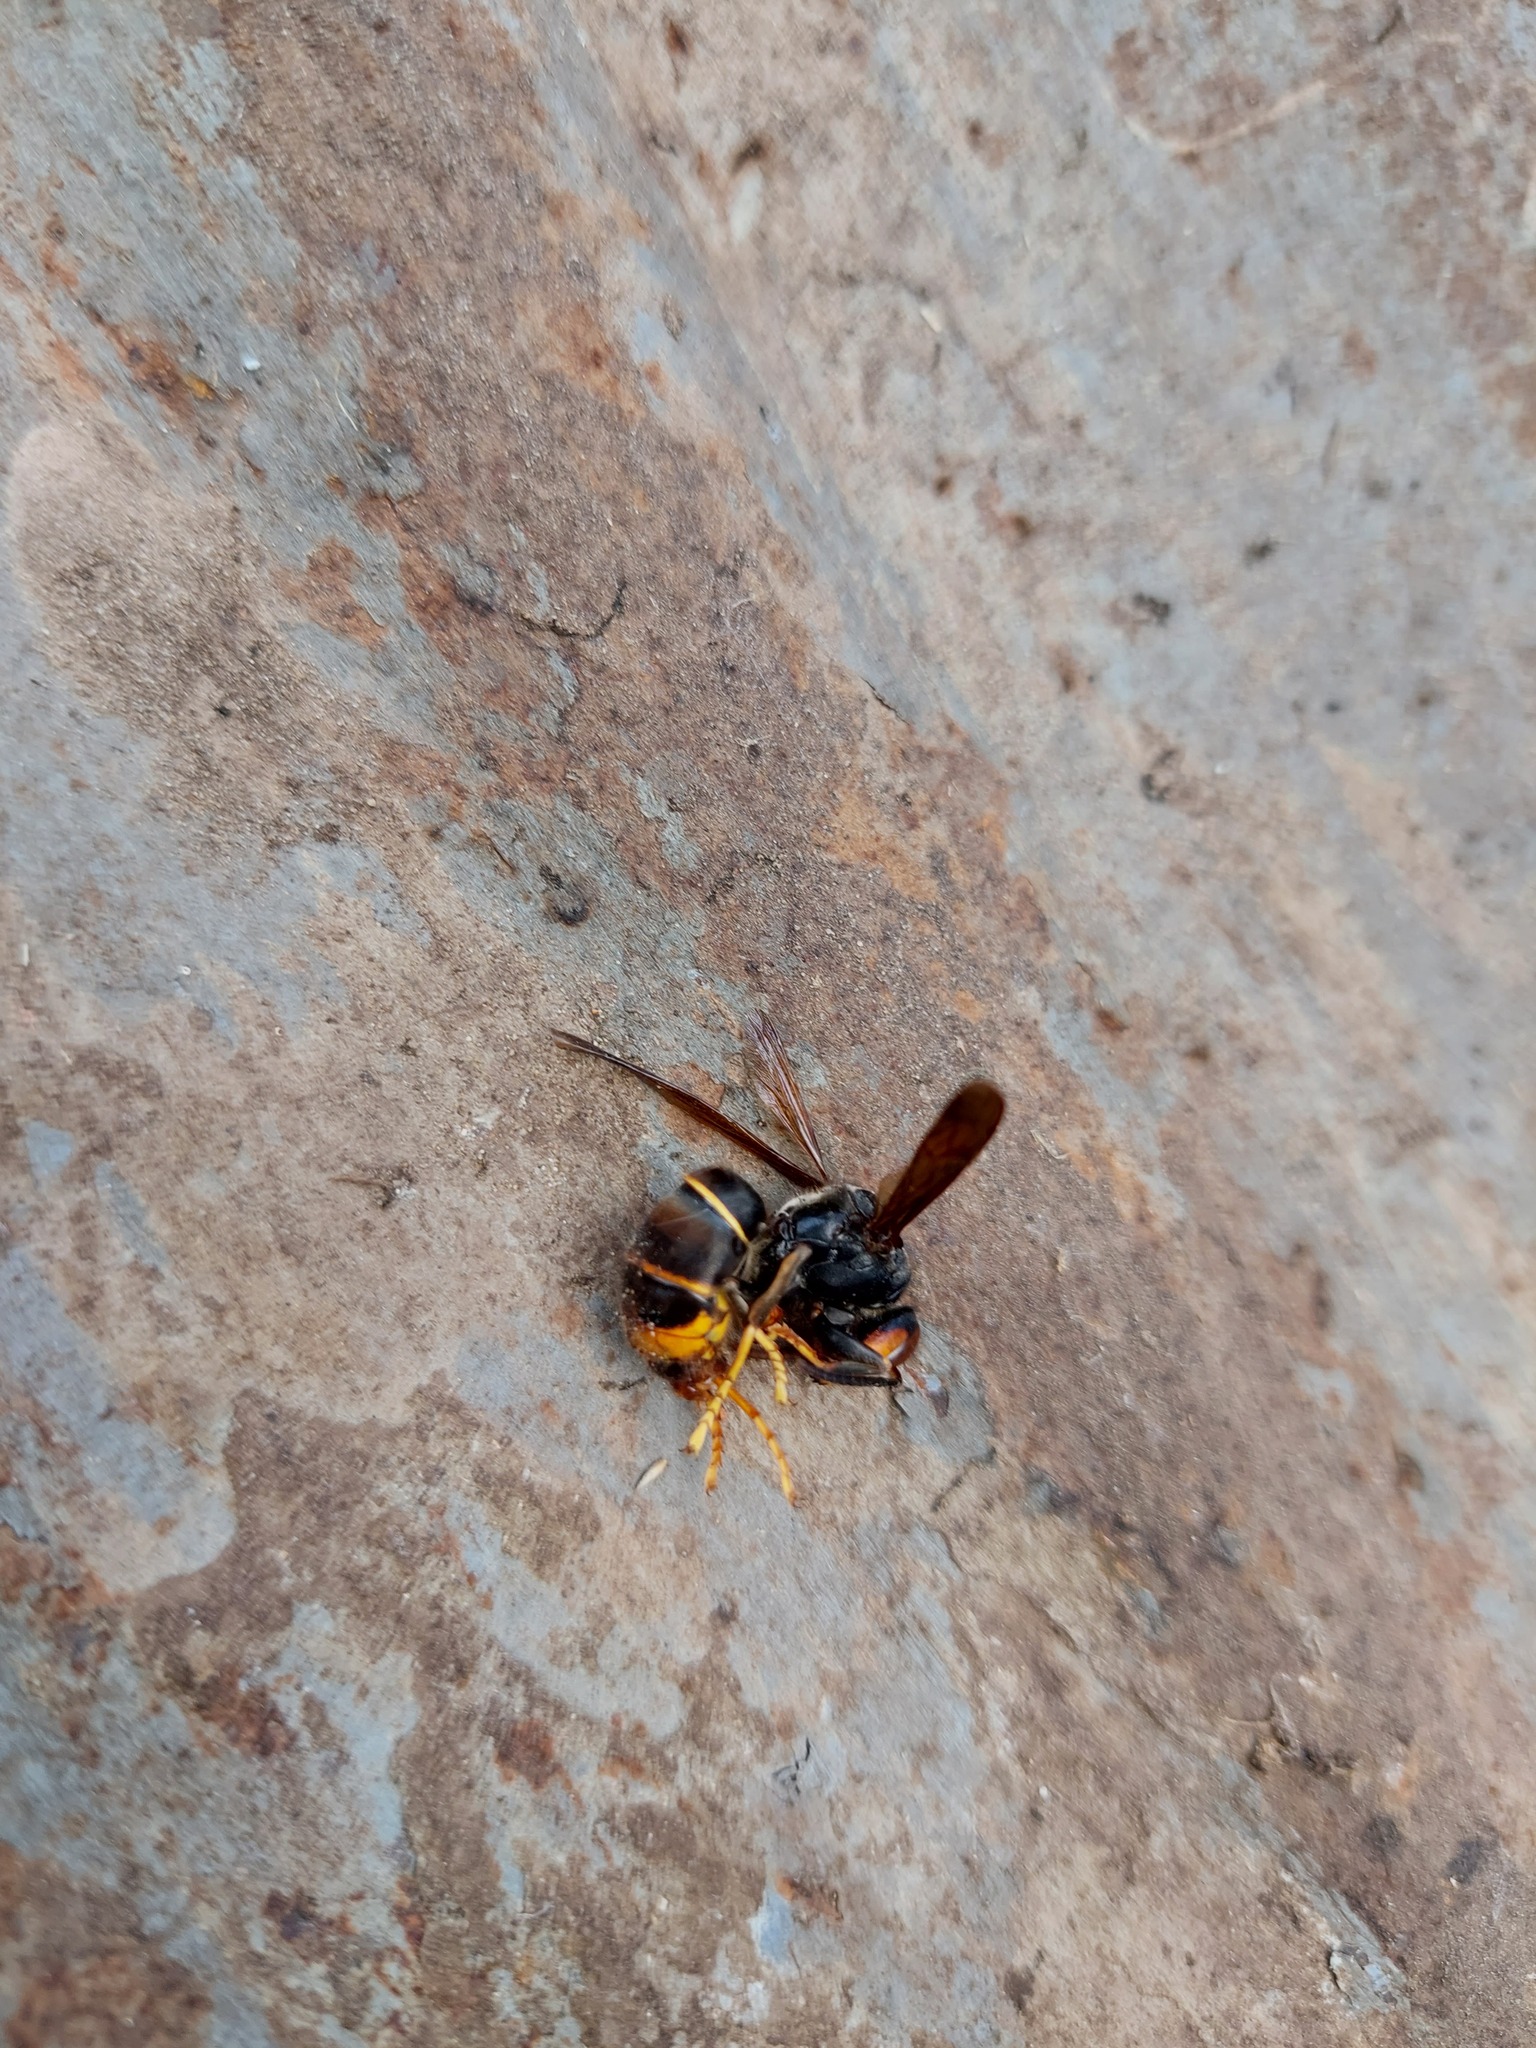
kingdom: Animalia
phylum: Arthropoda
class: Insecta
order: Hymenoptera
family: Vespidae
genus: Vespa
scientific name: Vespa velutina
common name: Asian hornet
